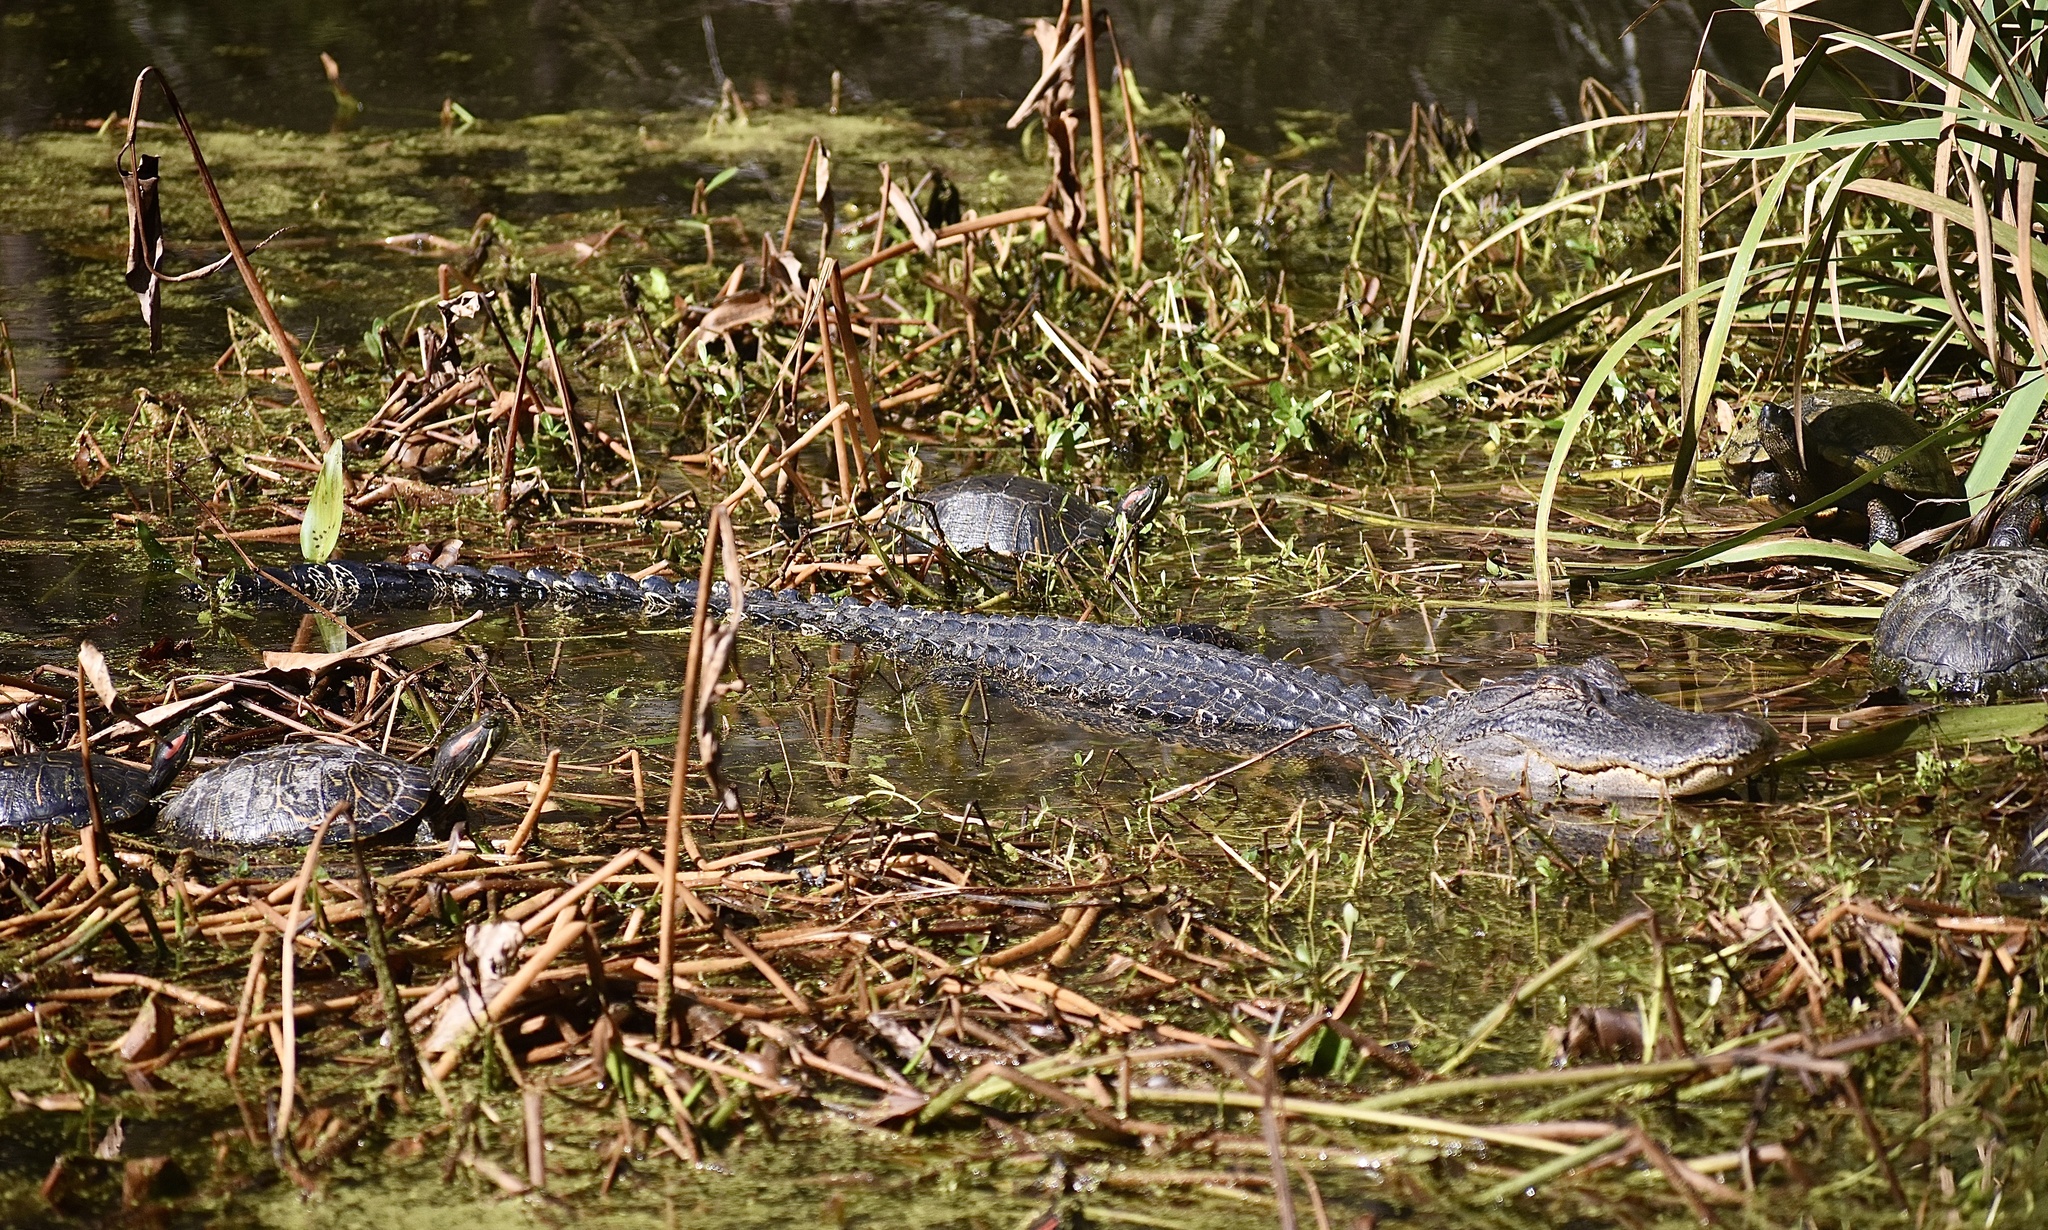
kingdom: Animalia
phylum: Chordata
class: Crocodylia
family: Alligatoridae
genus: Alligator
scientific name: Alligator mississippiensis
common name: American alligator
